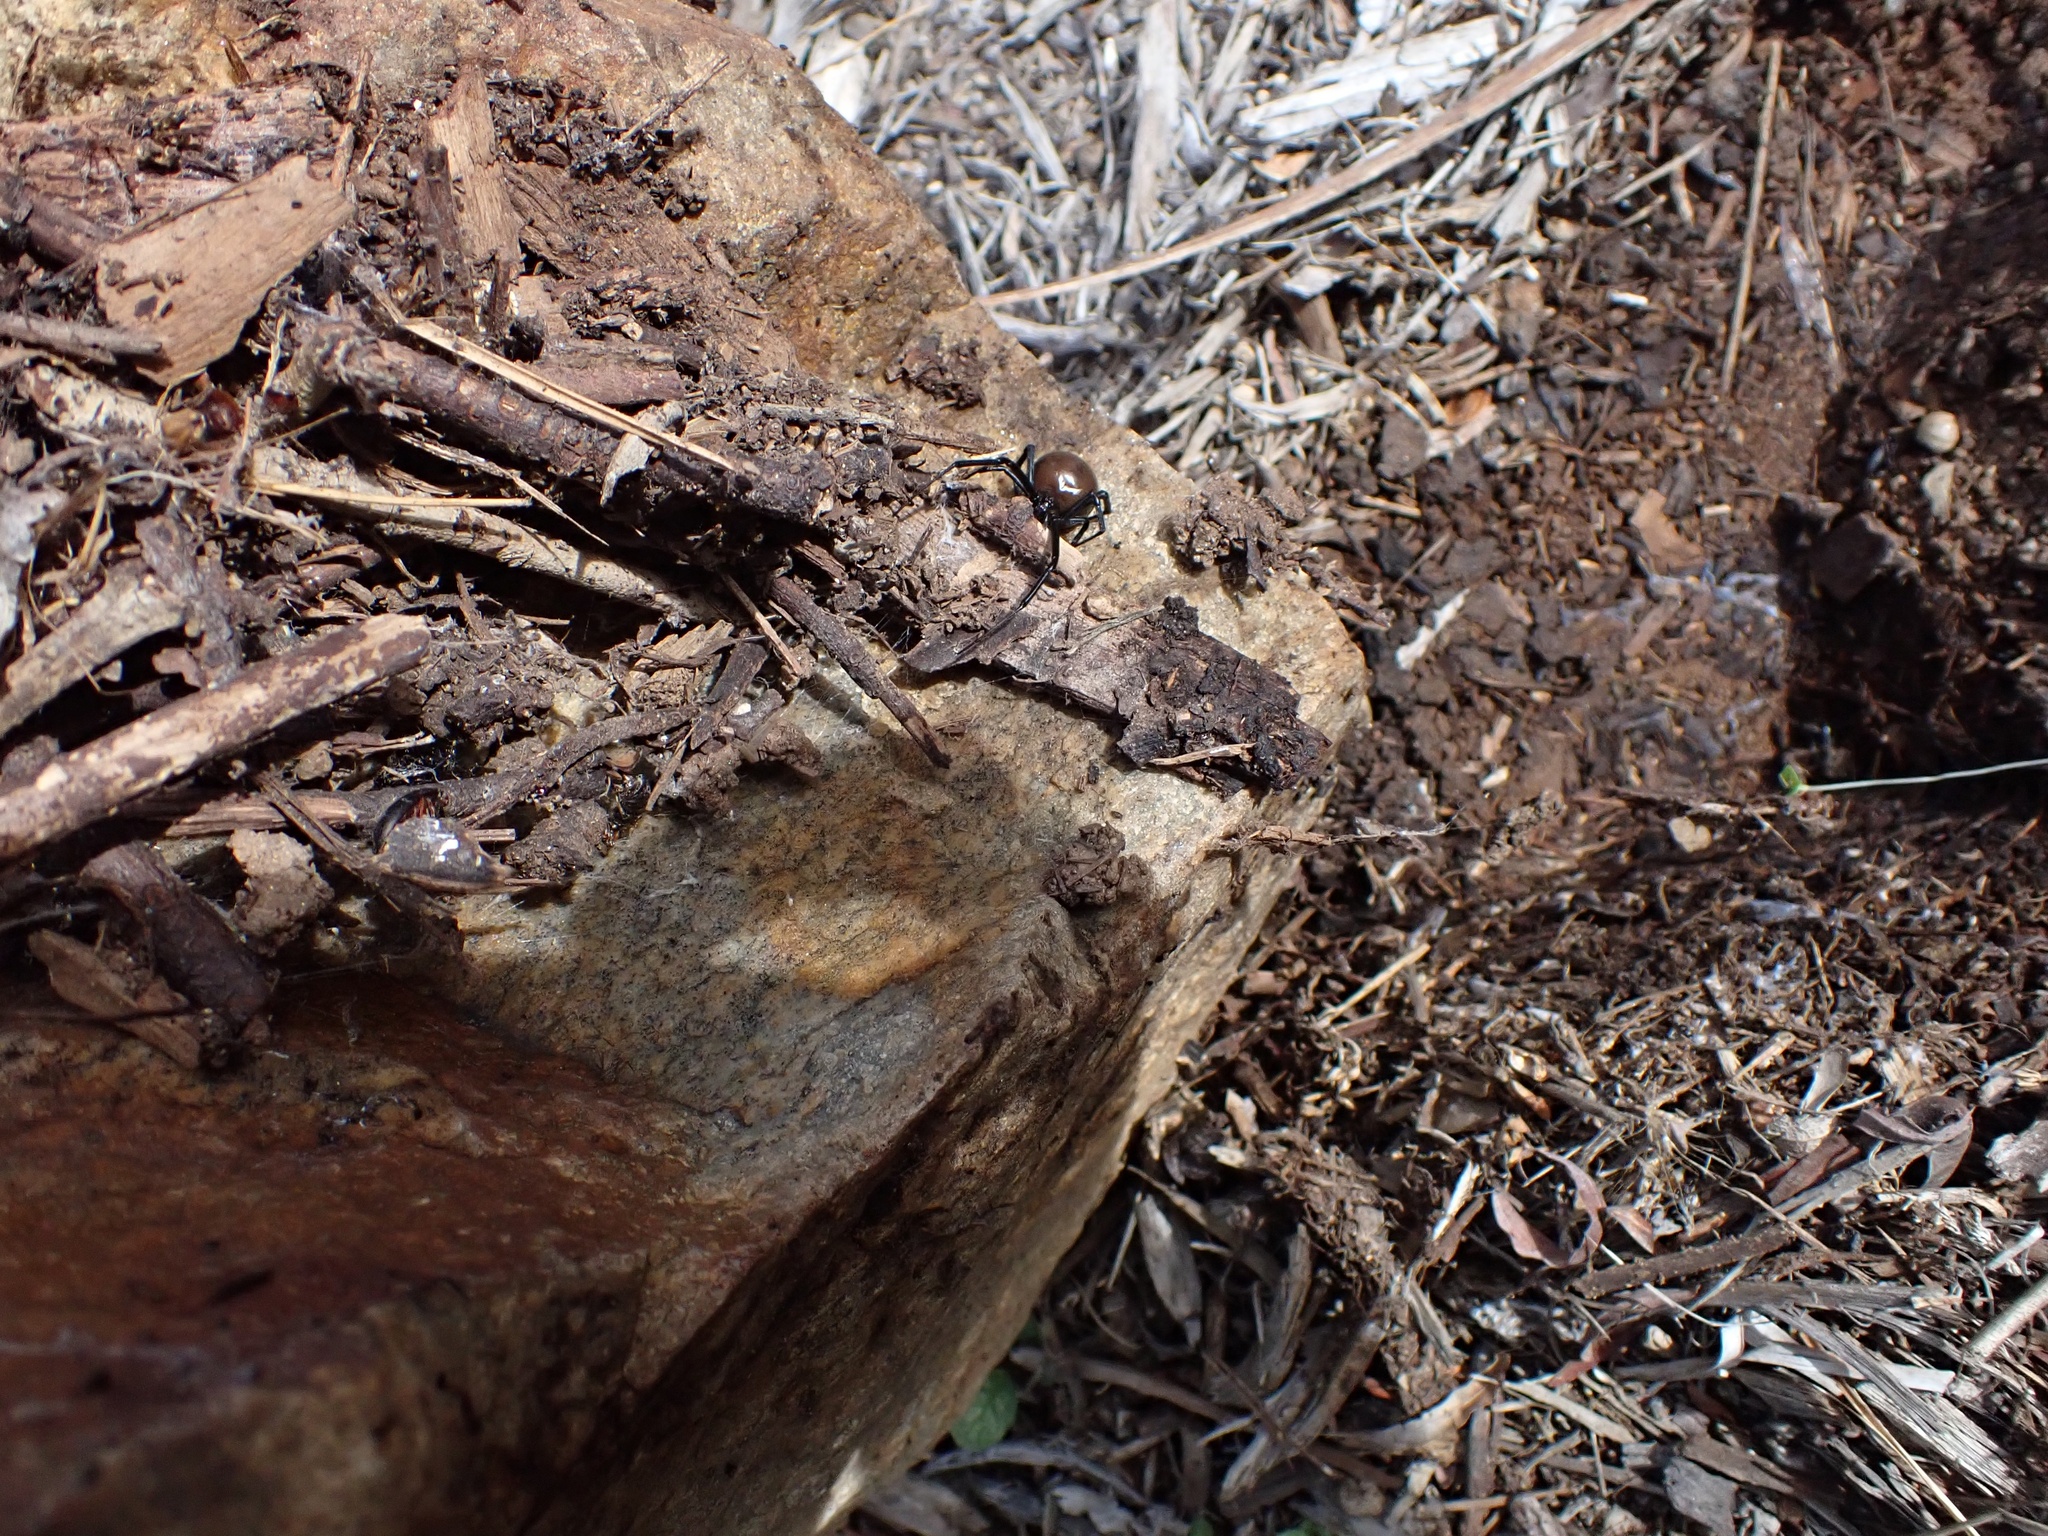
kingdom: Animalia
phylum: Arthropoda
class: Arachnida
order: Araneae
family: Theridiidae
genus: Latrodectus
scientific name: Latrodectus hesperus
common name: Western black widow
